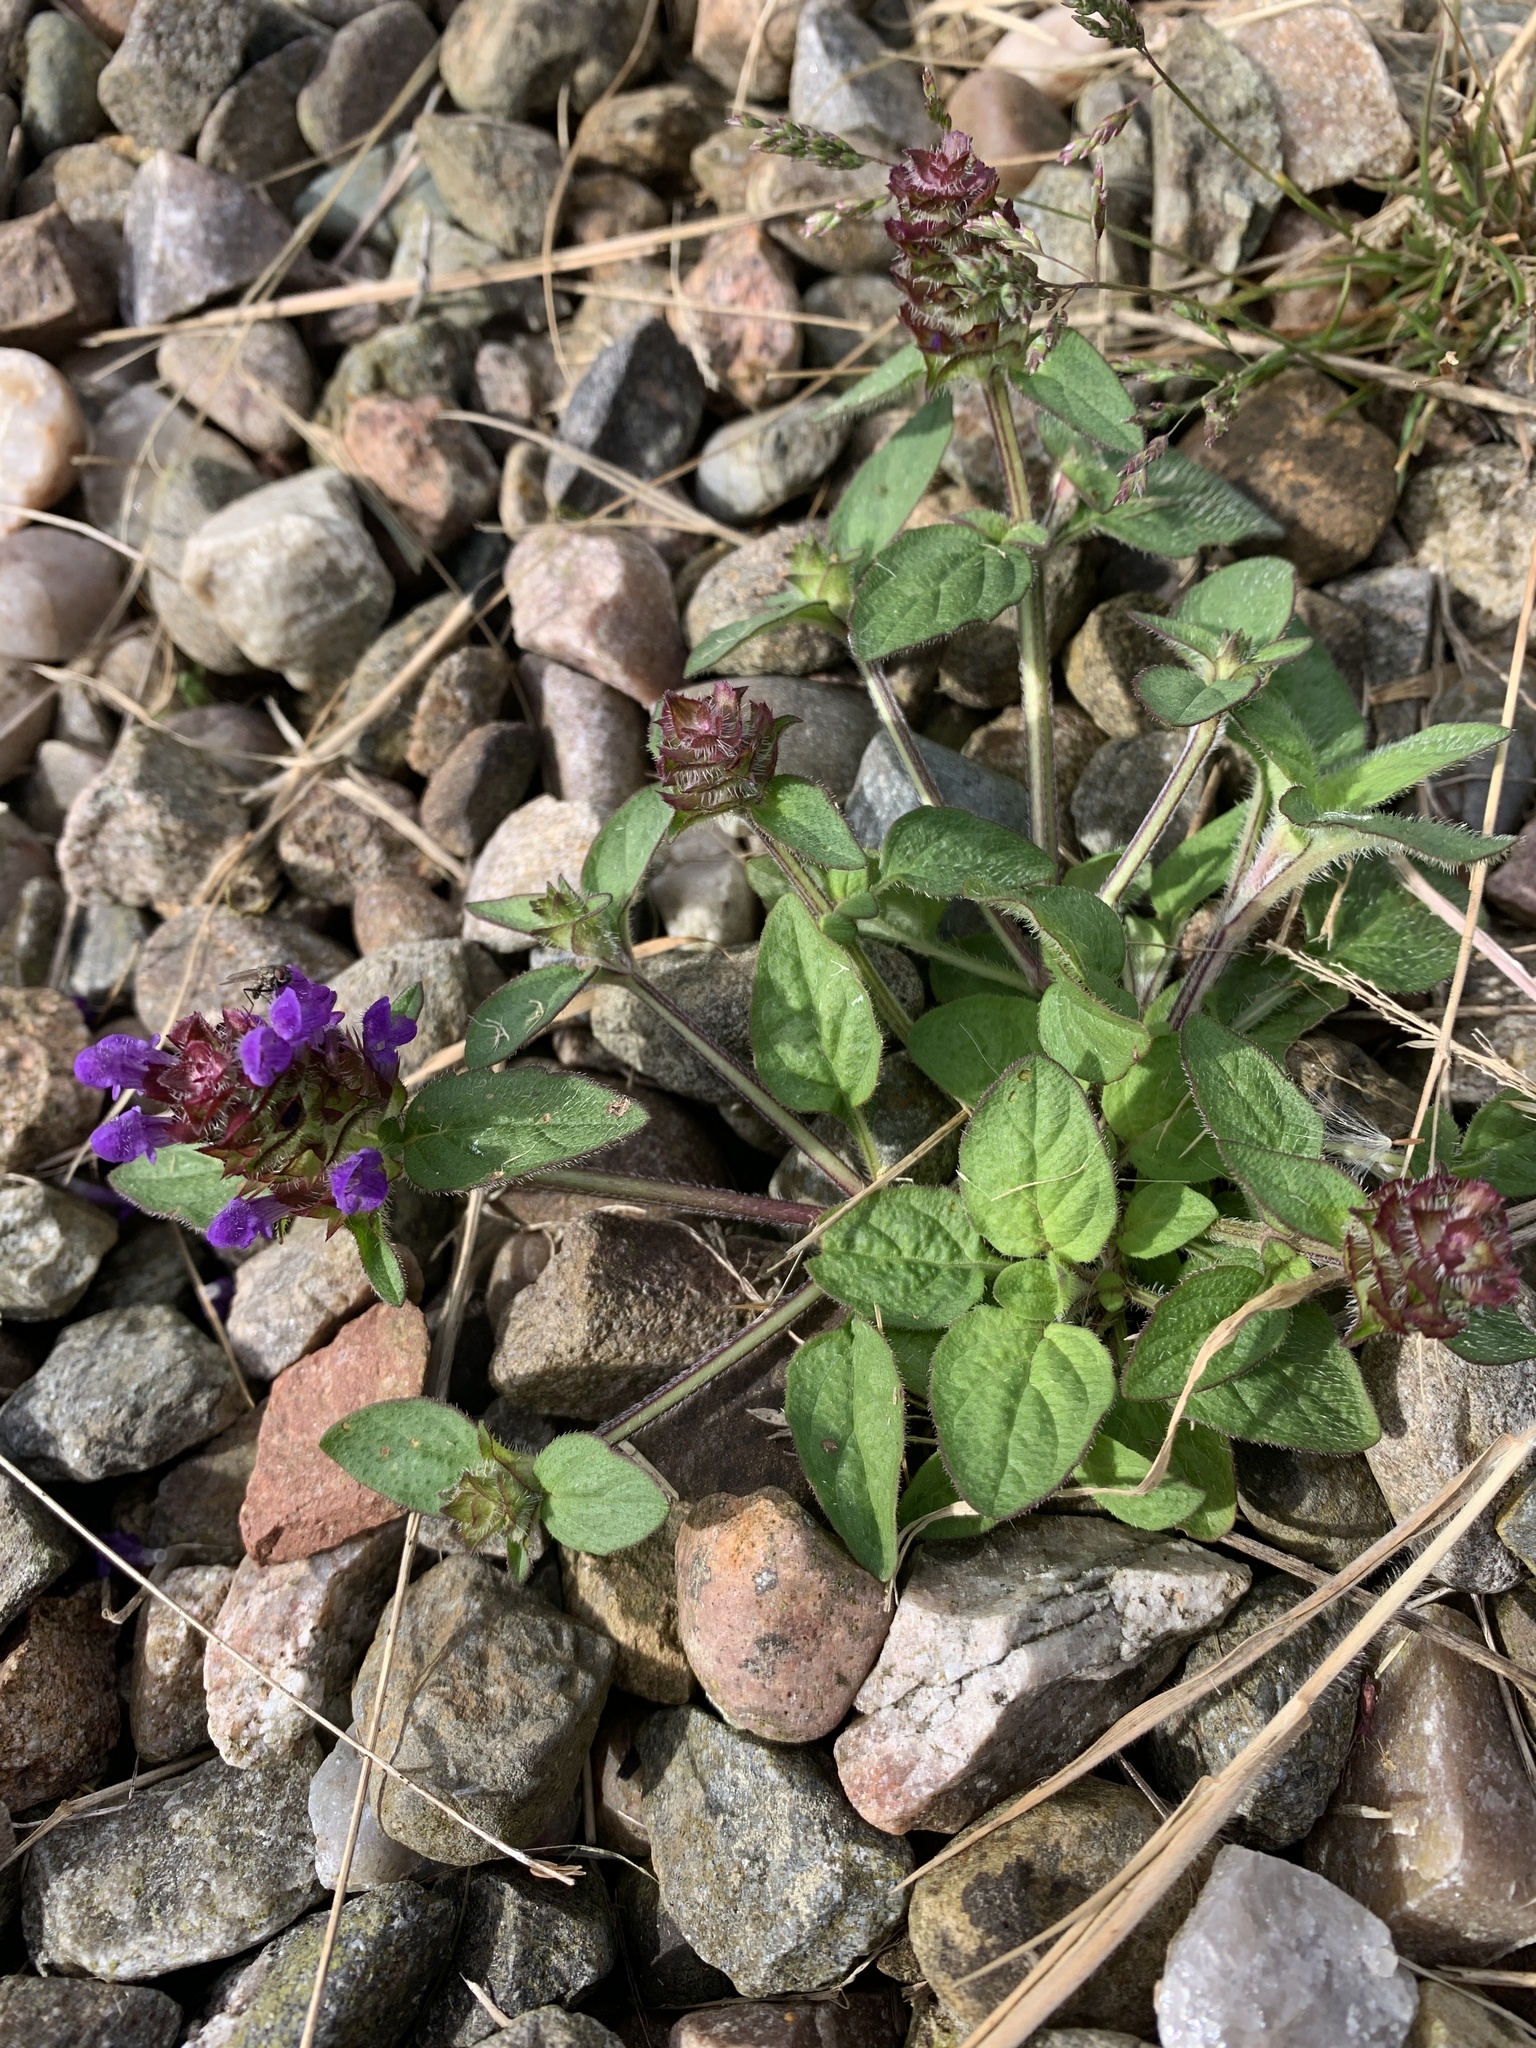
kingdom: Plantae
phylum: Tracheophyta
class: Magnoliopsida
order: Lamiales
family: Lamiaceae
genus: Prunella
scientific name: Prunella vulgaris
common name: Heal-all
